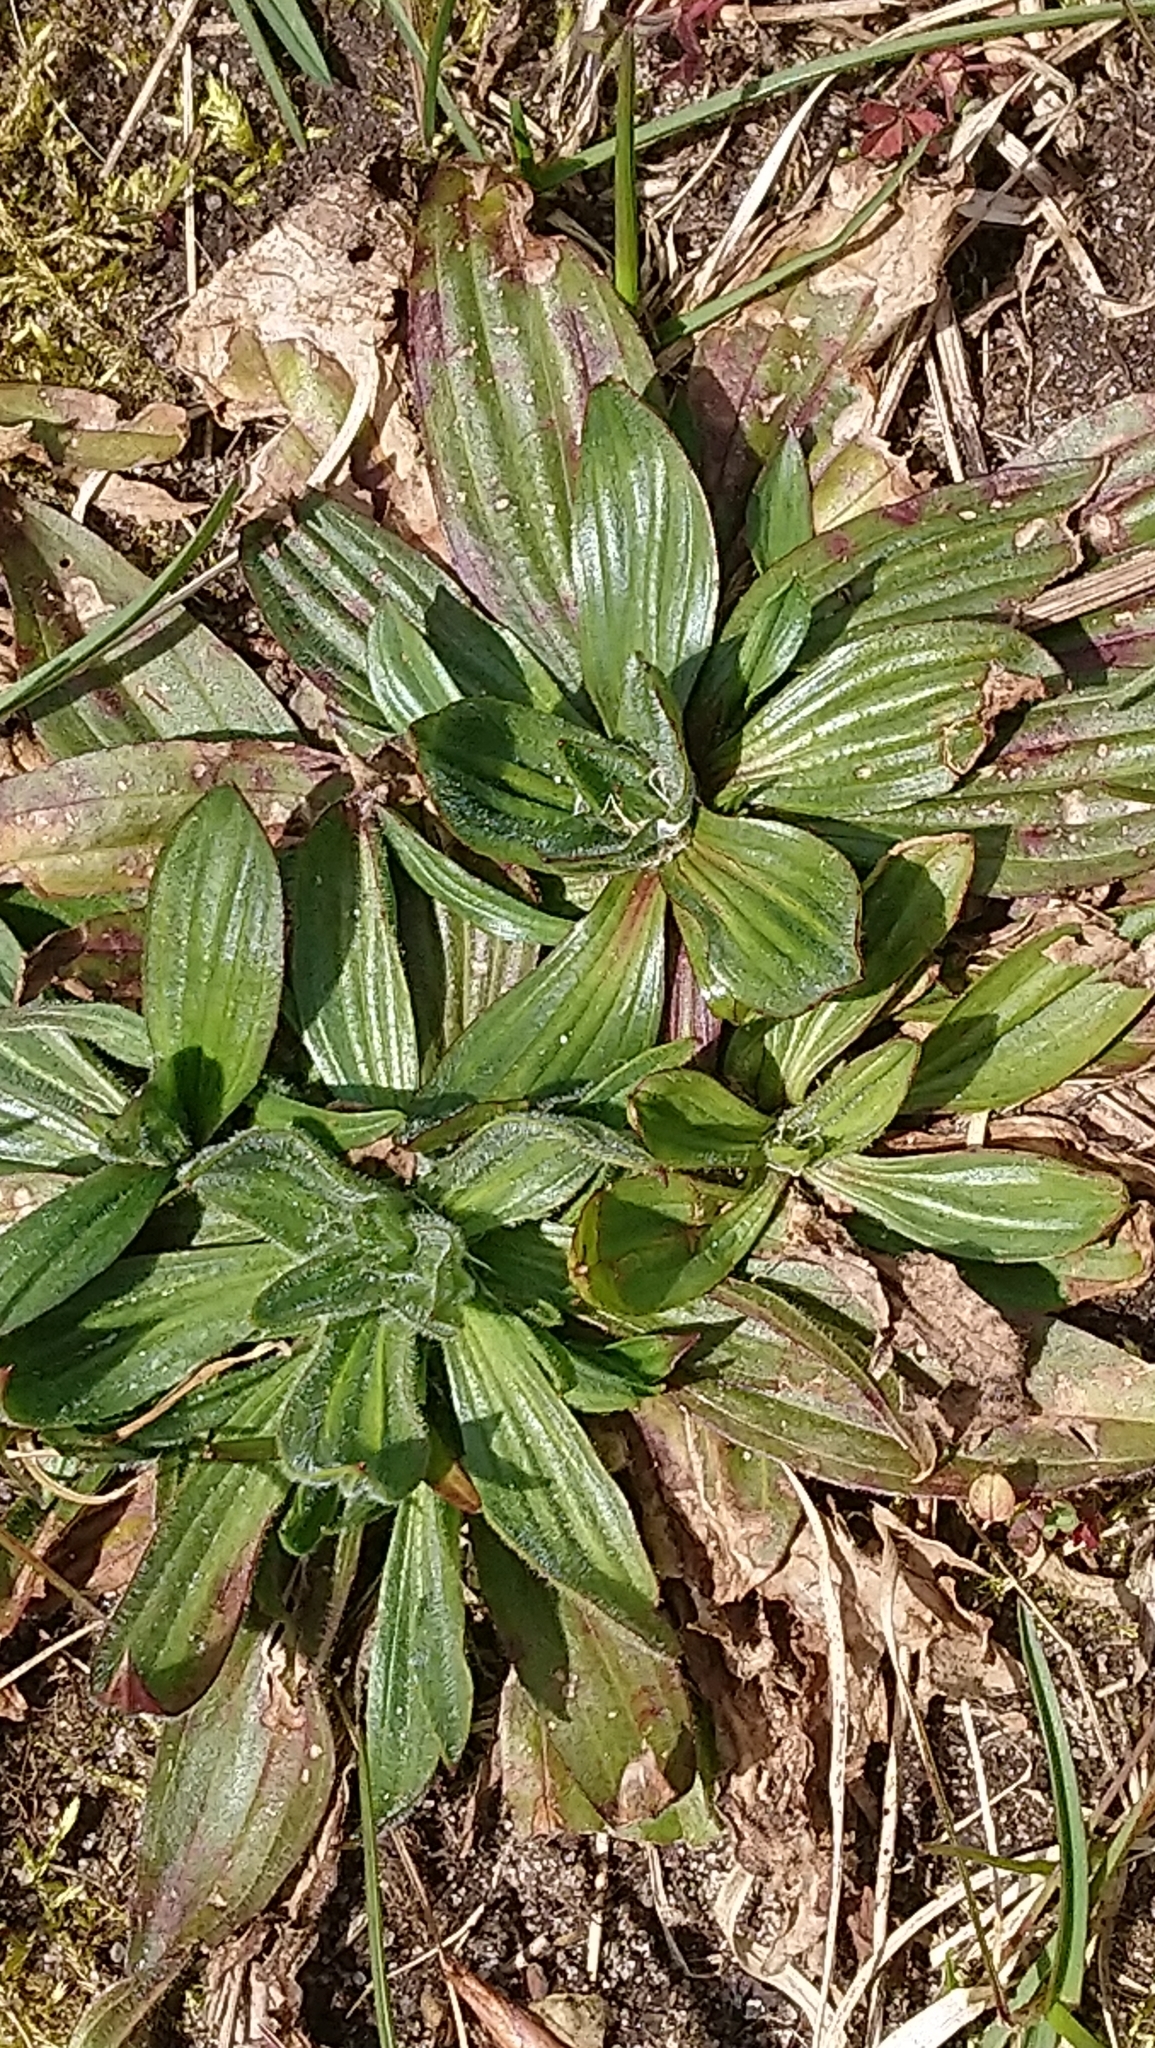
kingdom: Plantae
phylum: Tracheophyta
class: Magnoliopsida
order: Lamiales
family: Plantaginaceae
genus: Plantago
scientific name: Plantago lanceolata
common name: Ribwort plantain
